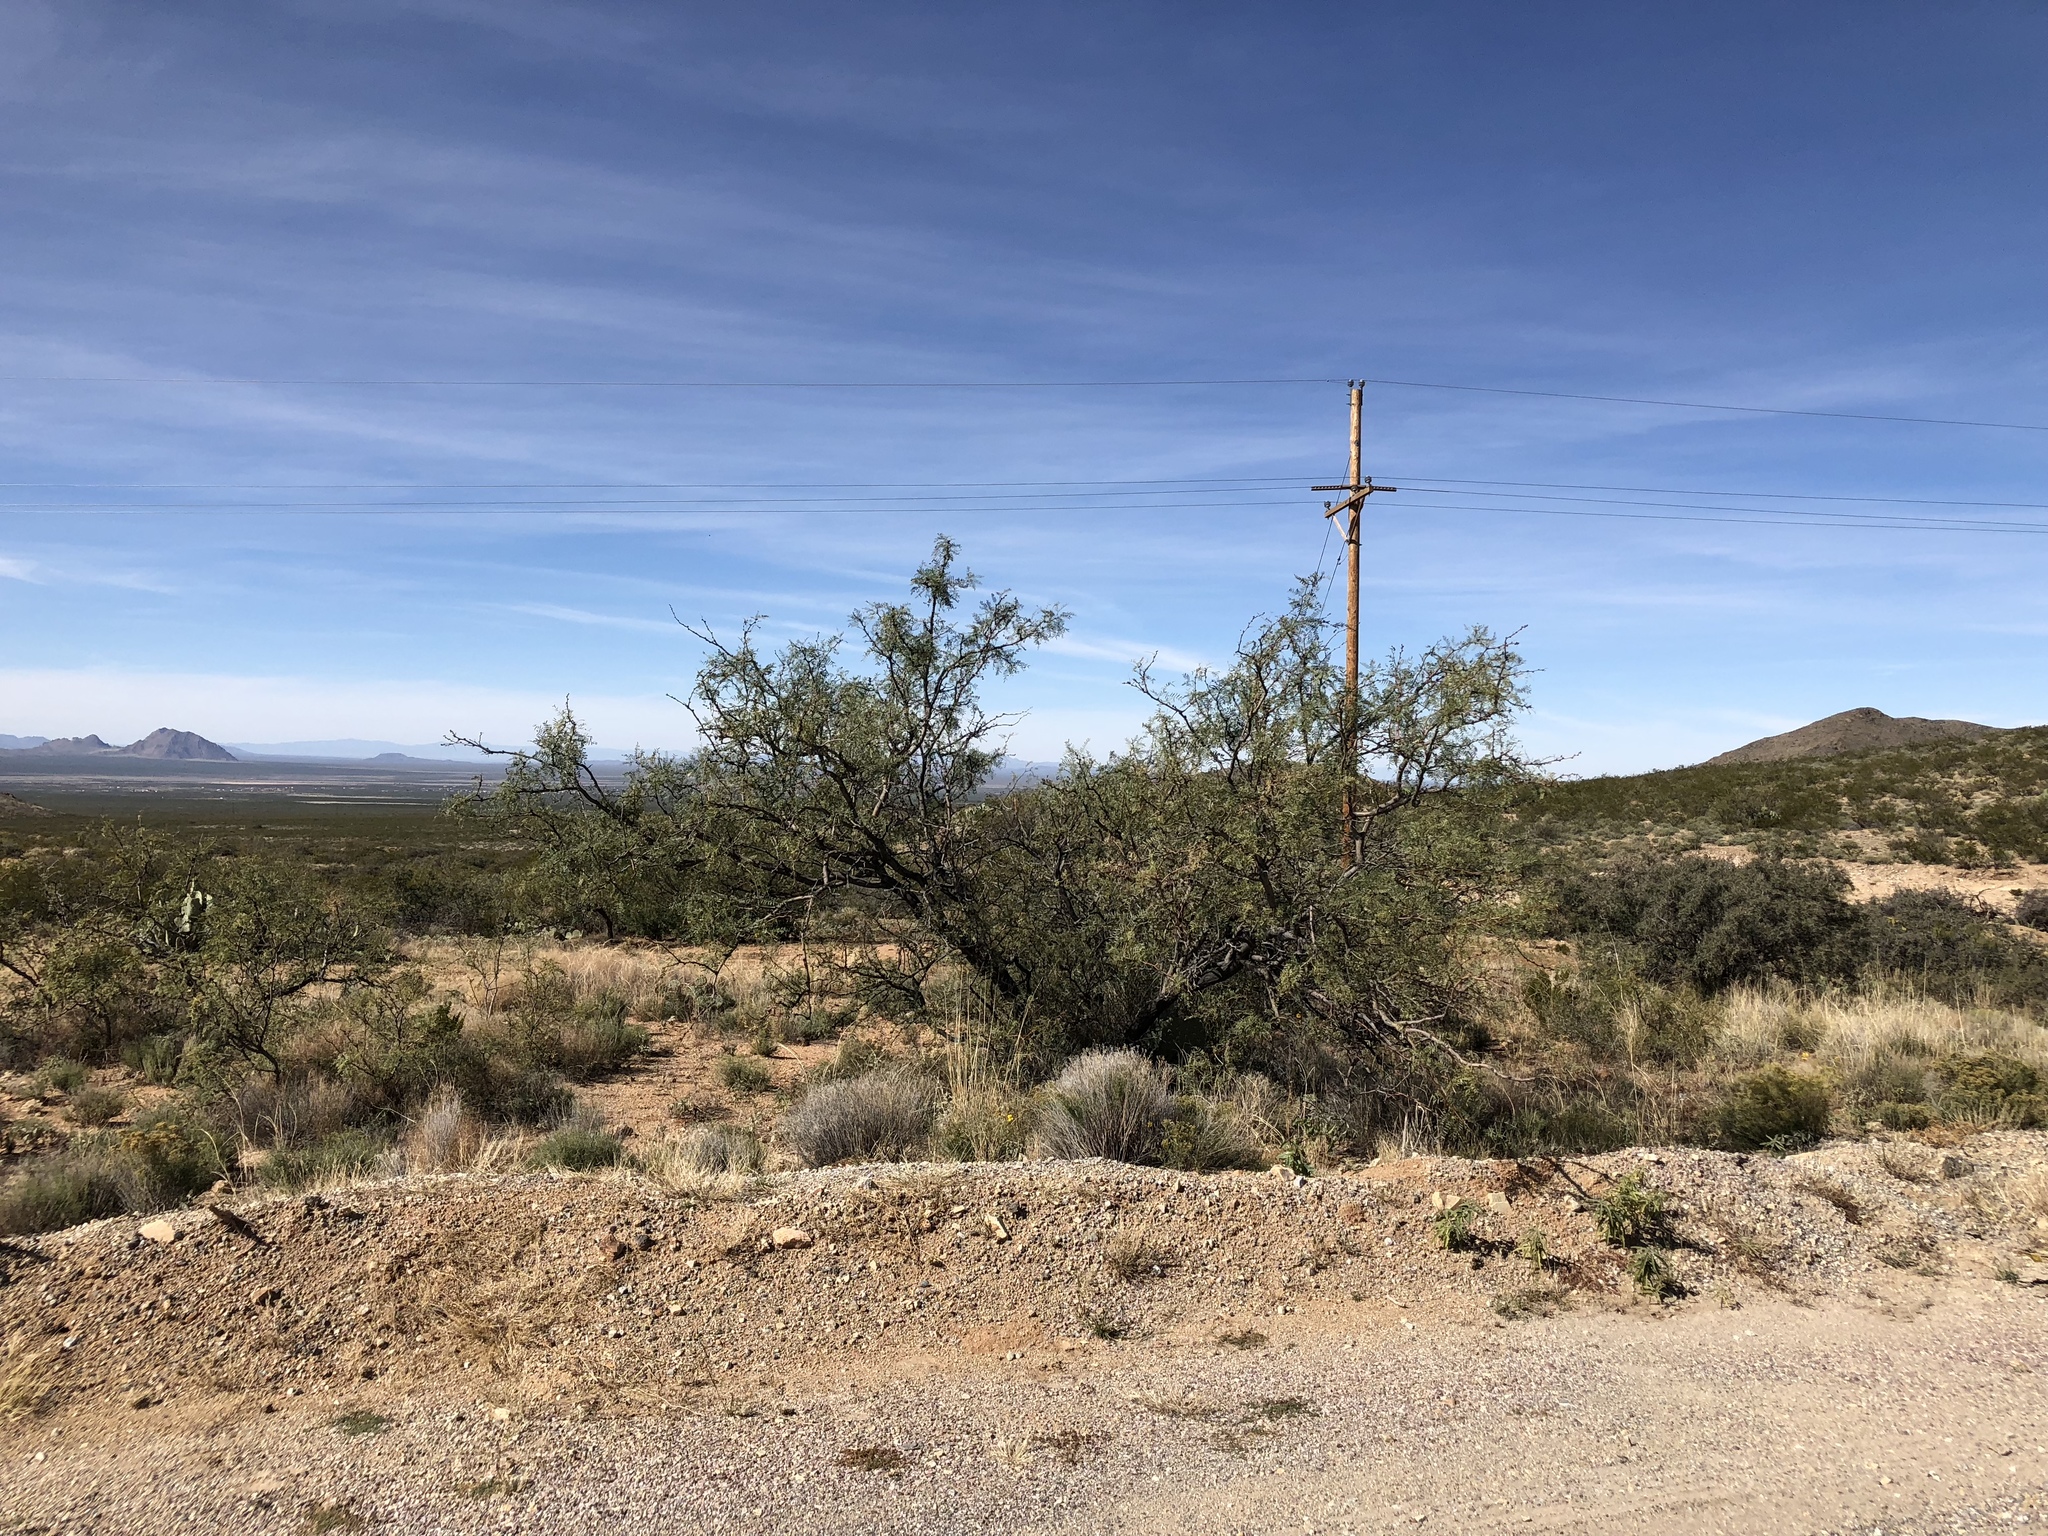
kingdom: Plantae
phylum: Tracheophyta
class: Magnoliopsida
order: Fabales
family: Fabaceae
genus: Prosopis
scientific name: Prosopis glandulosa
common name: Honey mesquite
